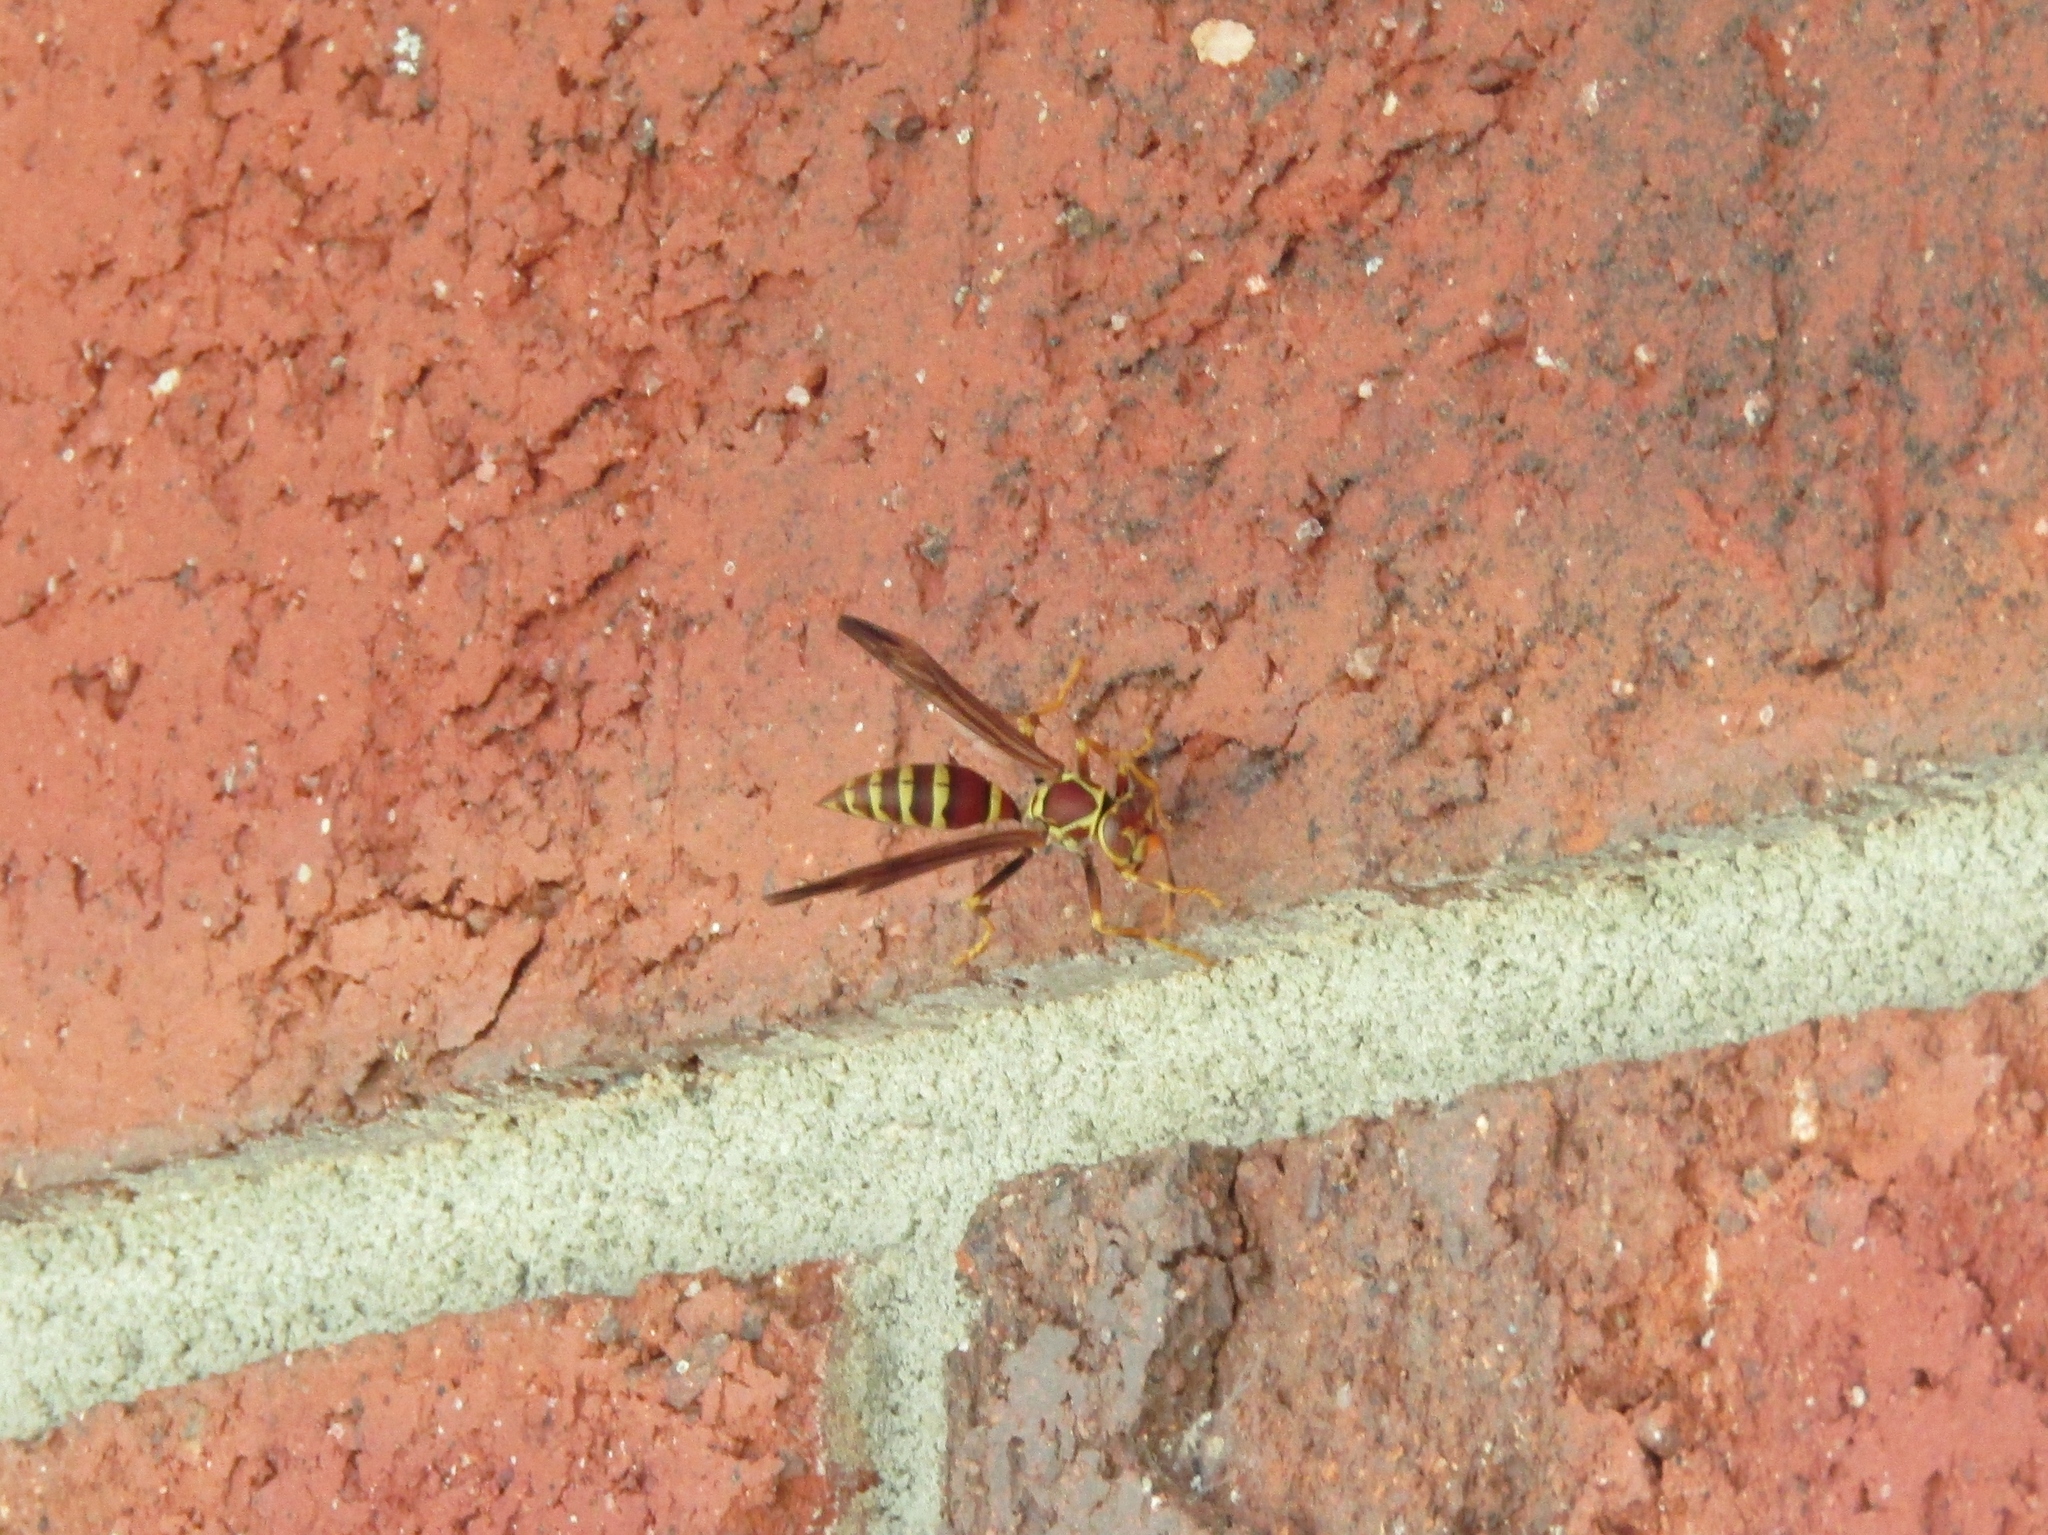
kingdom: Animalia
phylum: Arthropoda
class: Insecta
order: Hymenoptera
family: Eumenidae
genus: Polistes
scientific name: Polistes exclamans
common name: Paper wasp
